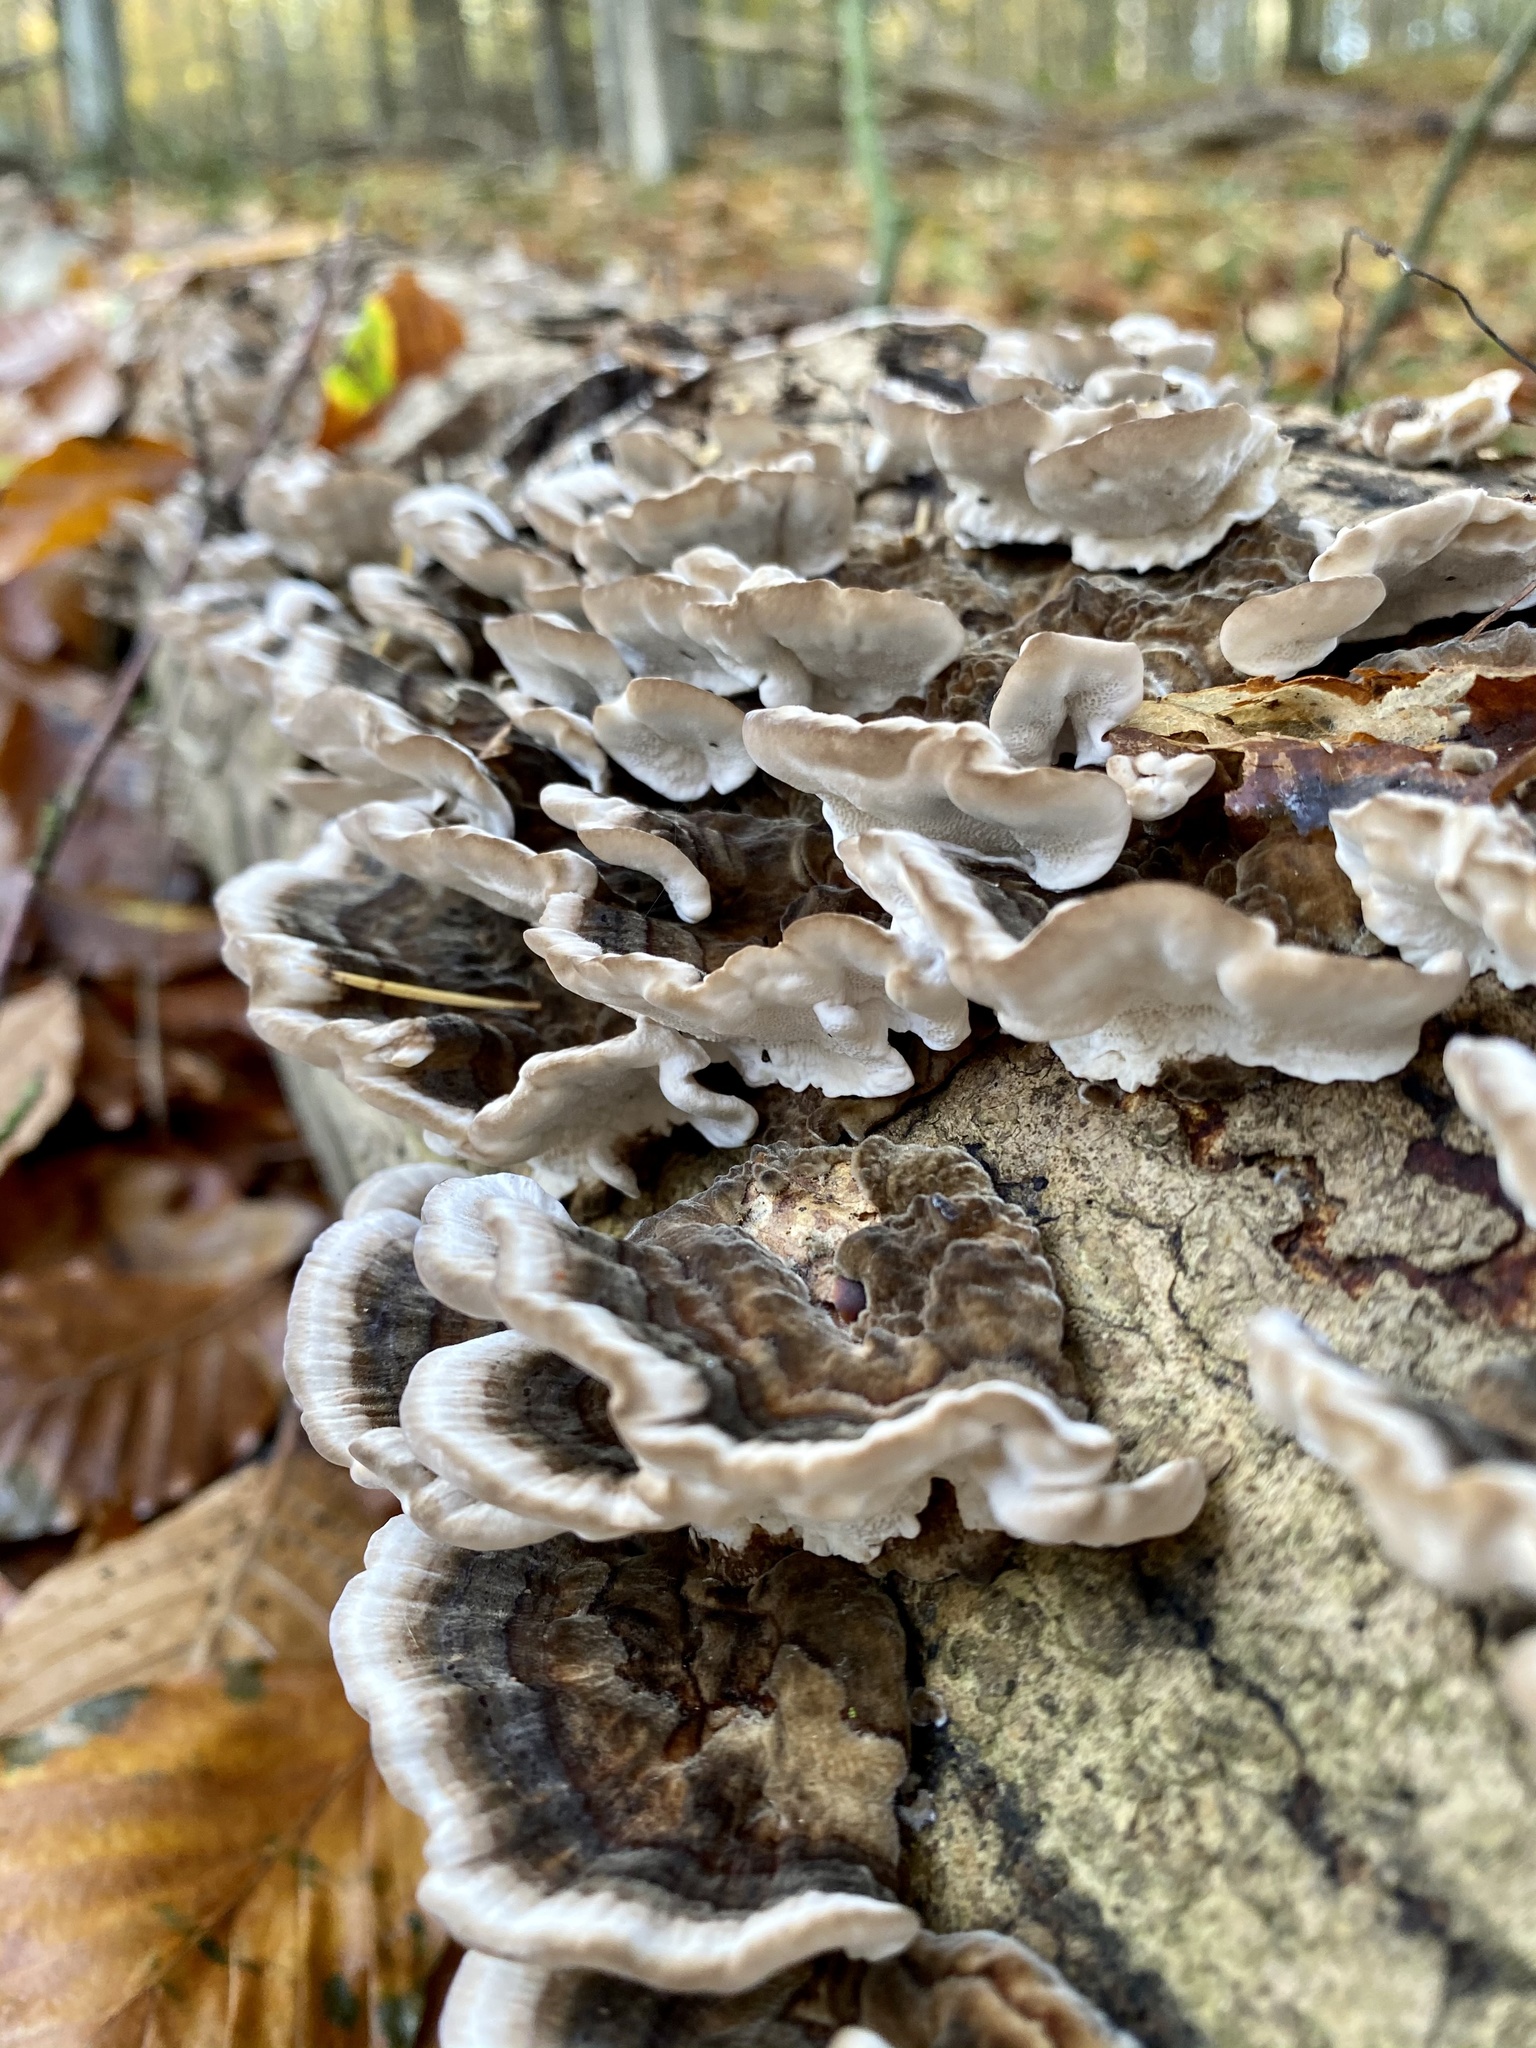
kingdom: Fungi
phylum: Basidiomycota
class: Agaricomycetes
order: Polyporales
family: Polyporaceae
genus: Trametes
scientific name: Trametes versicolor
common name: Turkeytail
